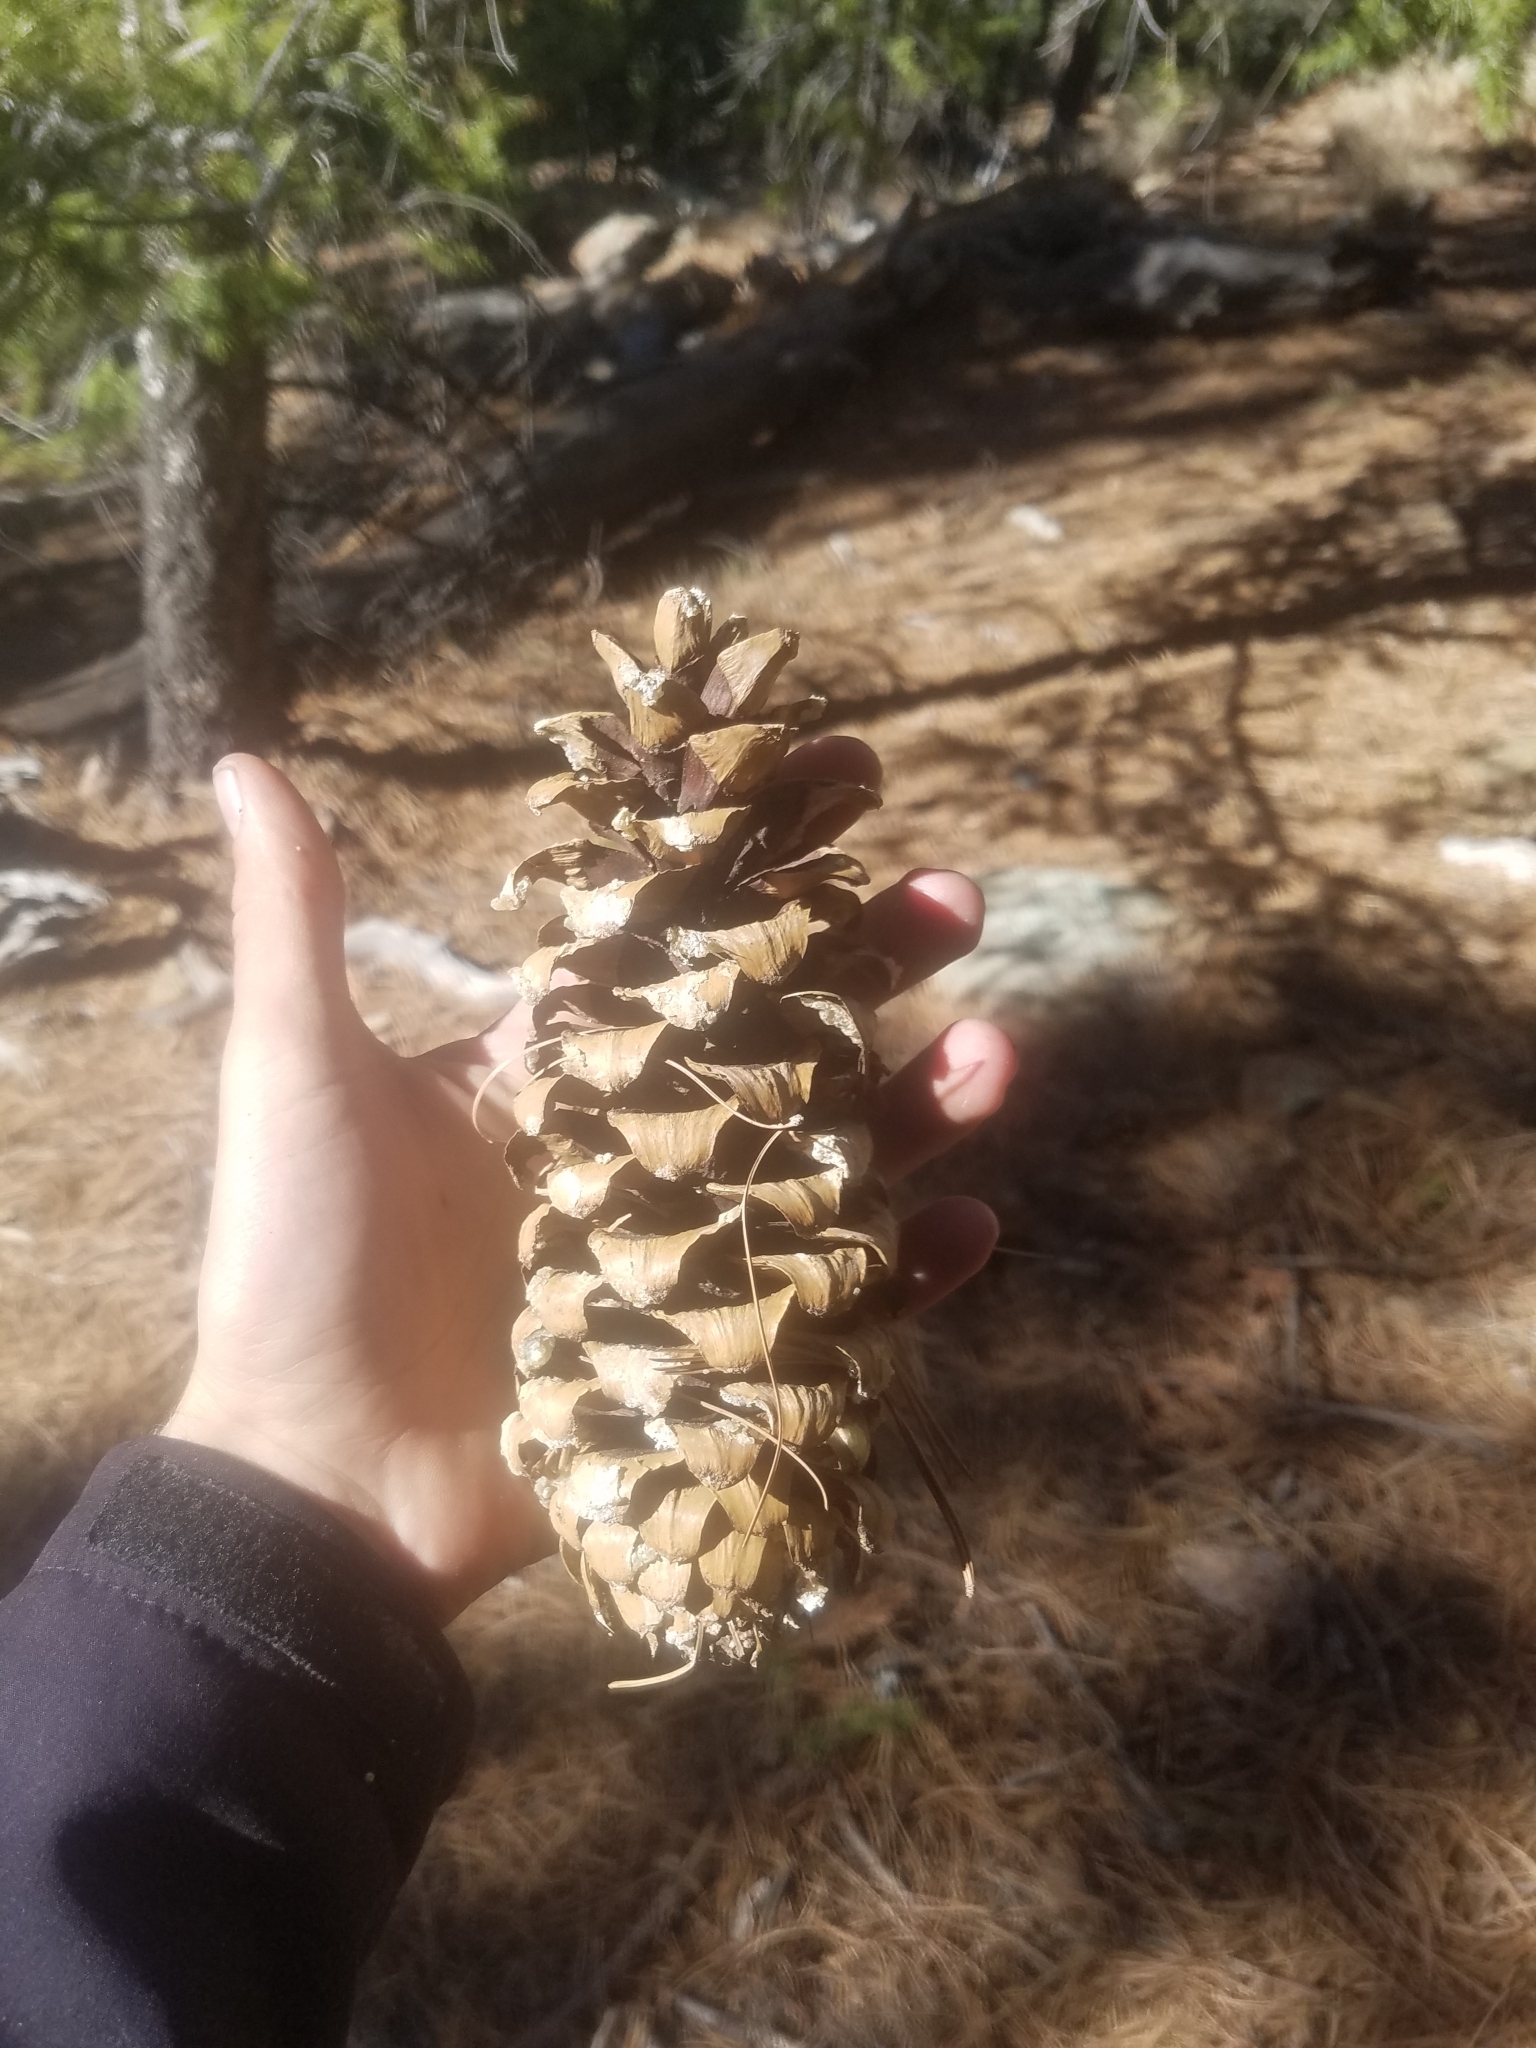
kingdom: Plantae
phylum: Tracheophyta
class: Pinopsida
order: Pinales
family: Pinaceae
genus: Pinus
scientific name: Pinus strobiformis
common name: Southwestern white pine
